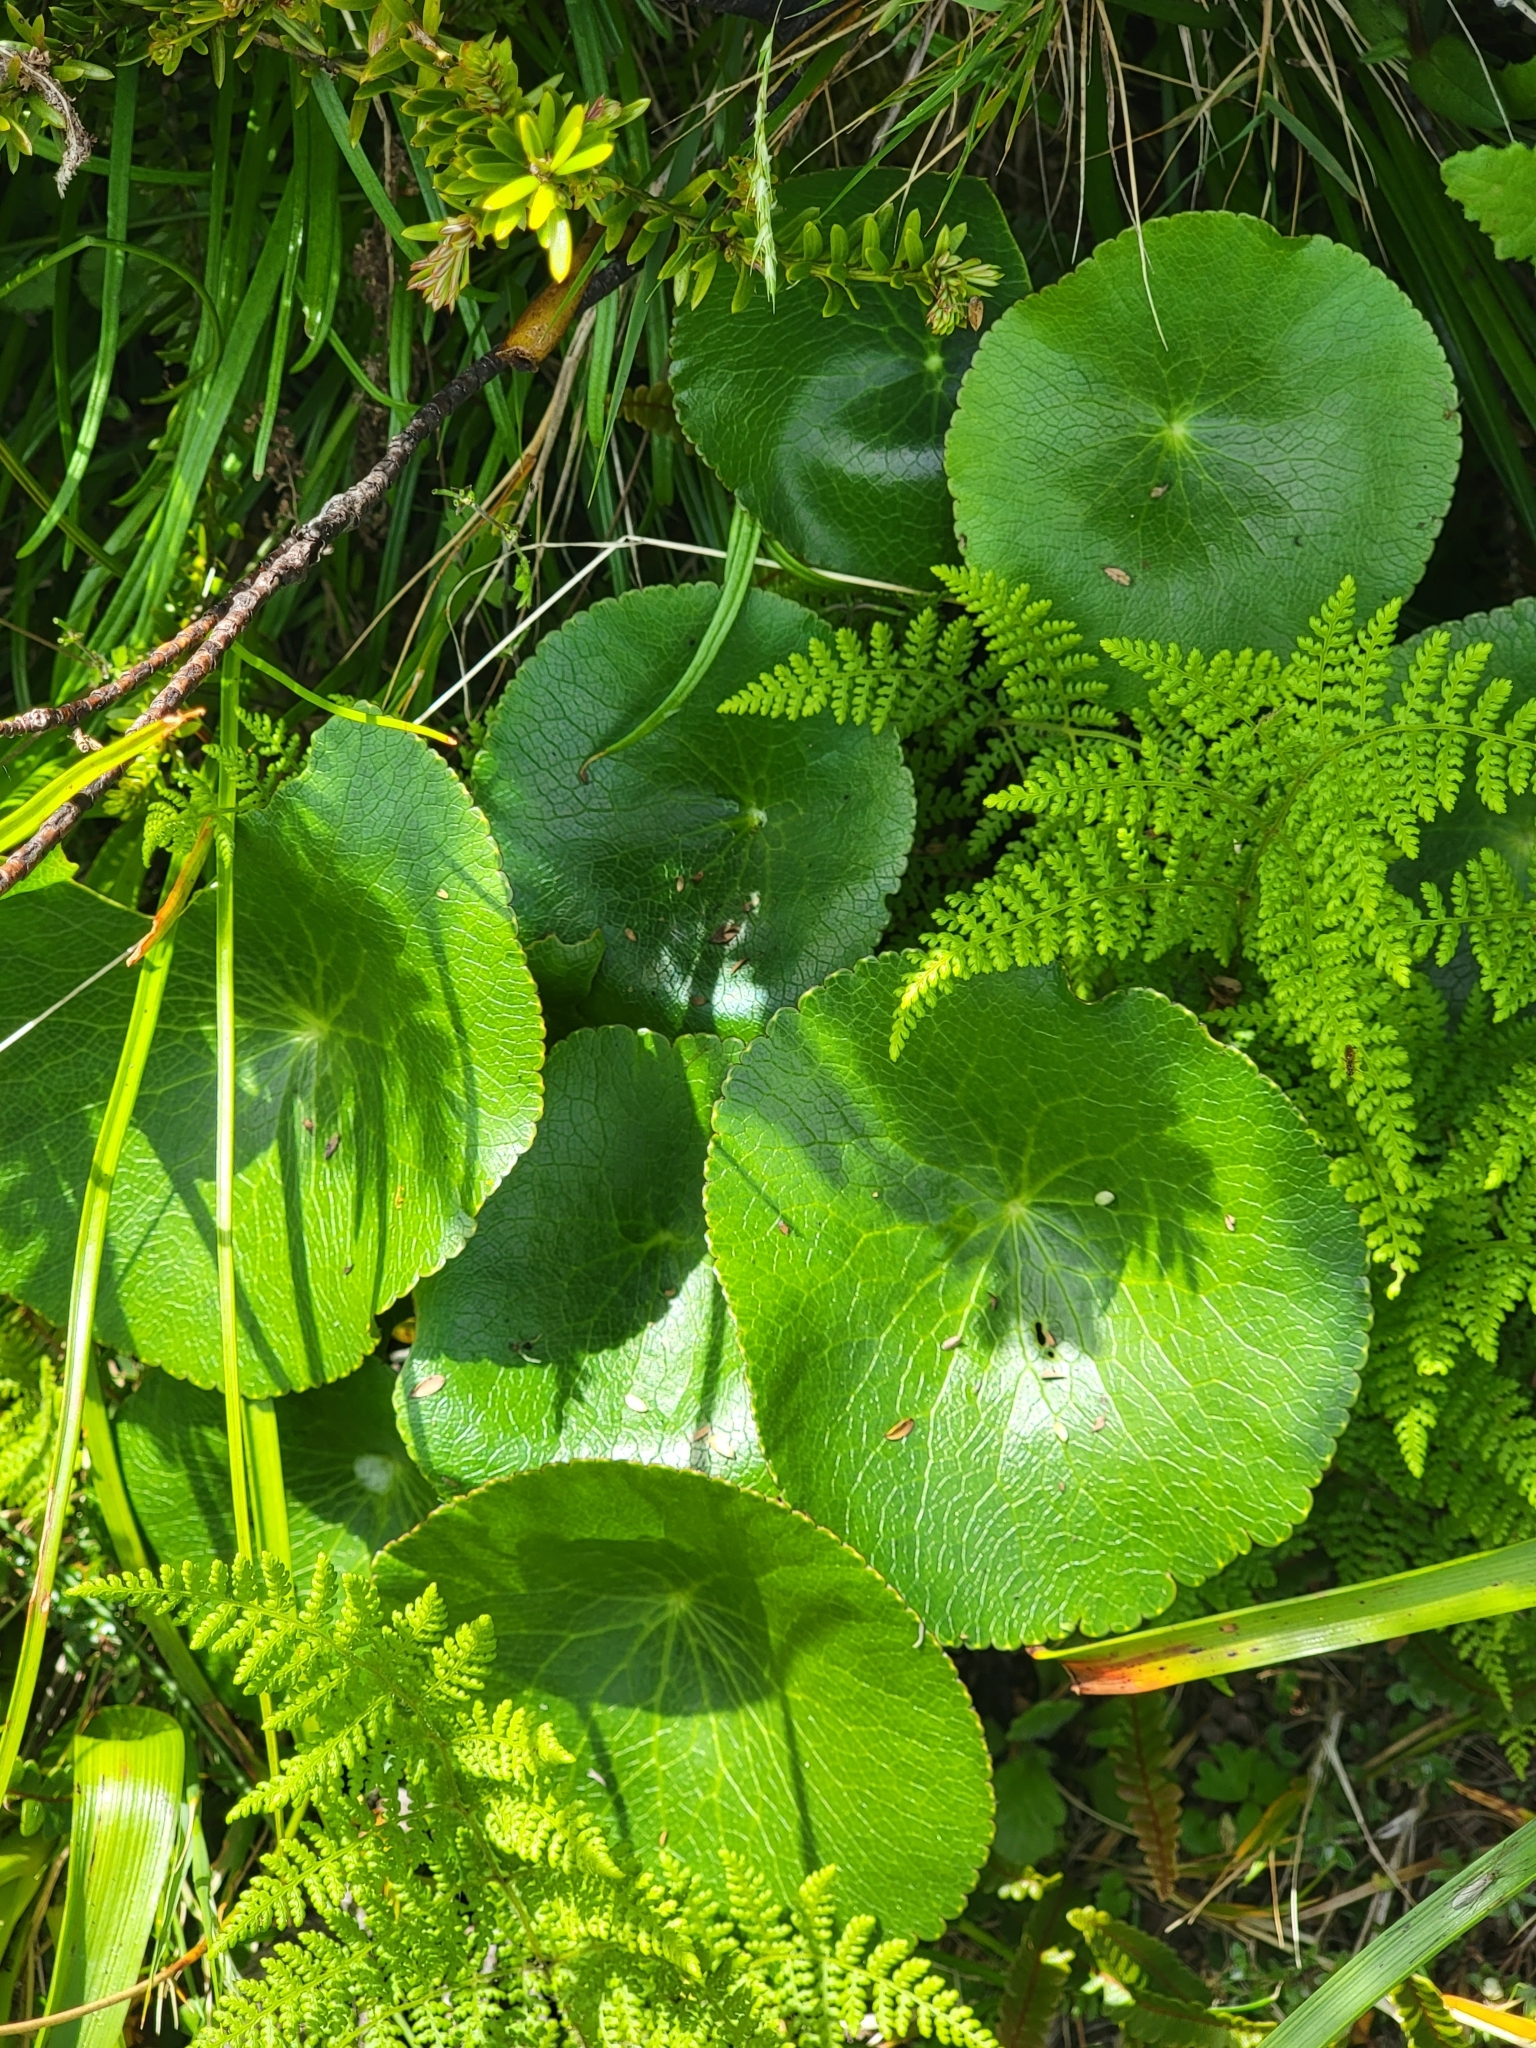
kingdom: Plantae
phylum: Tracheophyta
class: Magnoliopsida
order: Ranunculales
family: Ranunculaceae
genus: Ranunculus
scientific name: Ranunculus lyallii
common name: Mountain-lily
